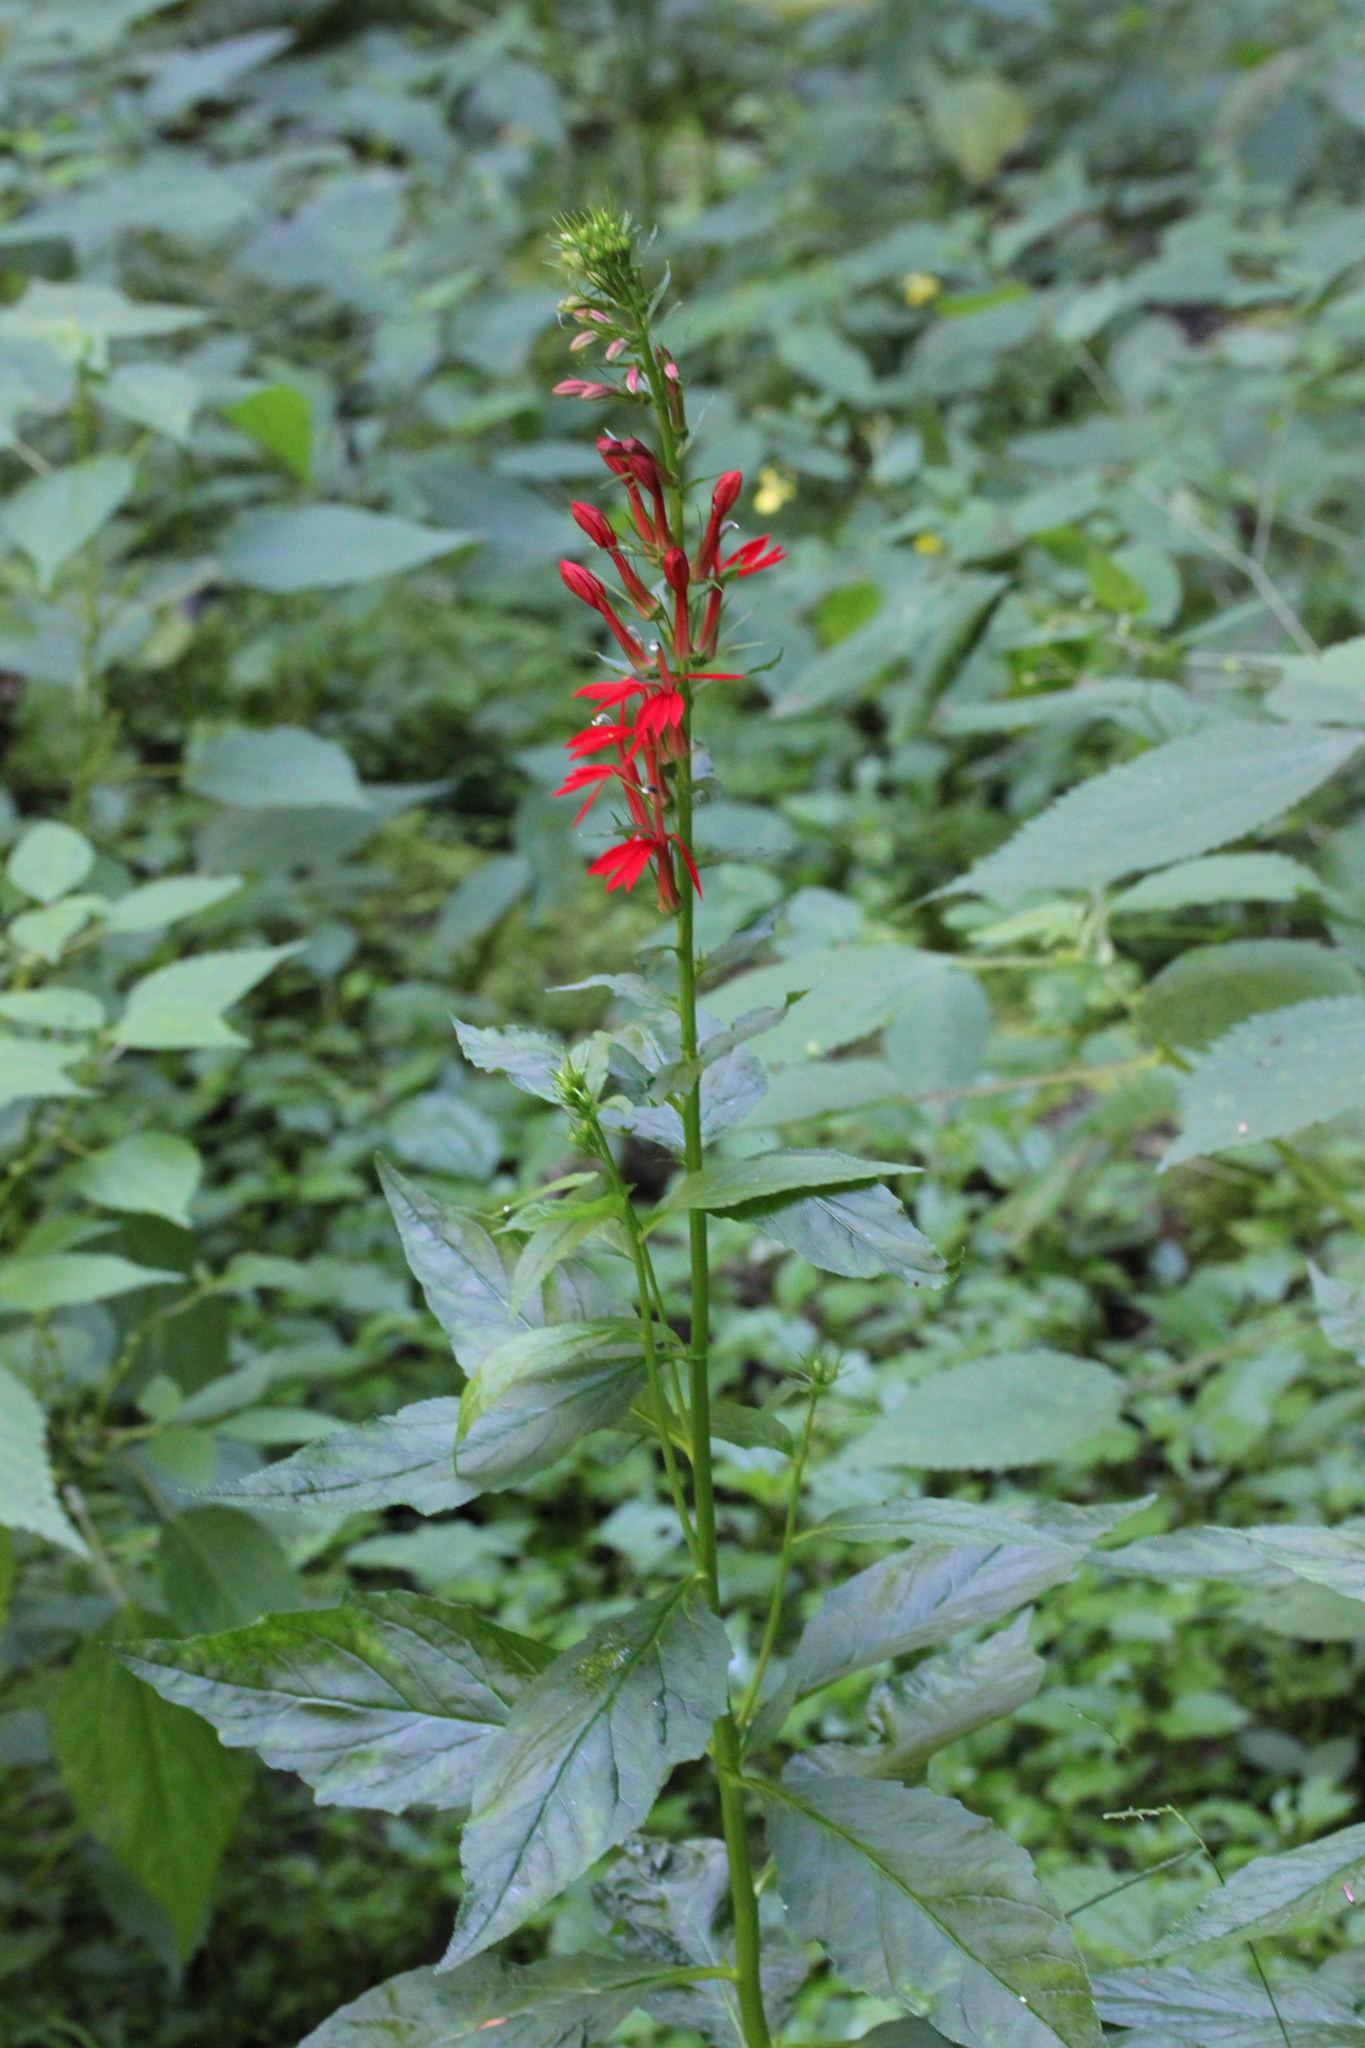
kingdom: Plantae
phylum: Tracheophyta
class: Magnoliopsida
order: Asterales
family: Campanulaceae
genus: Lobelia
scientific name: Lobelia cardinalis
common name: Cardinal flower
